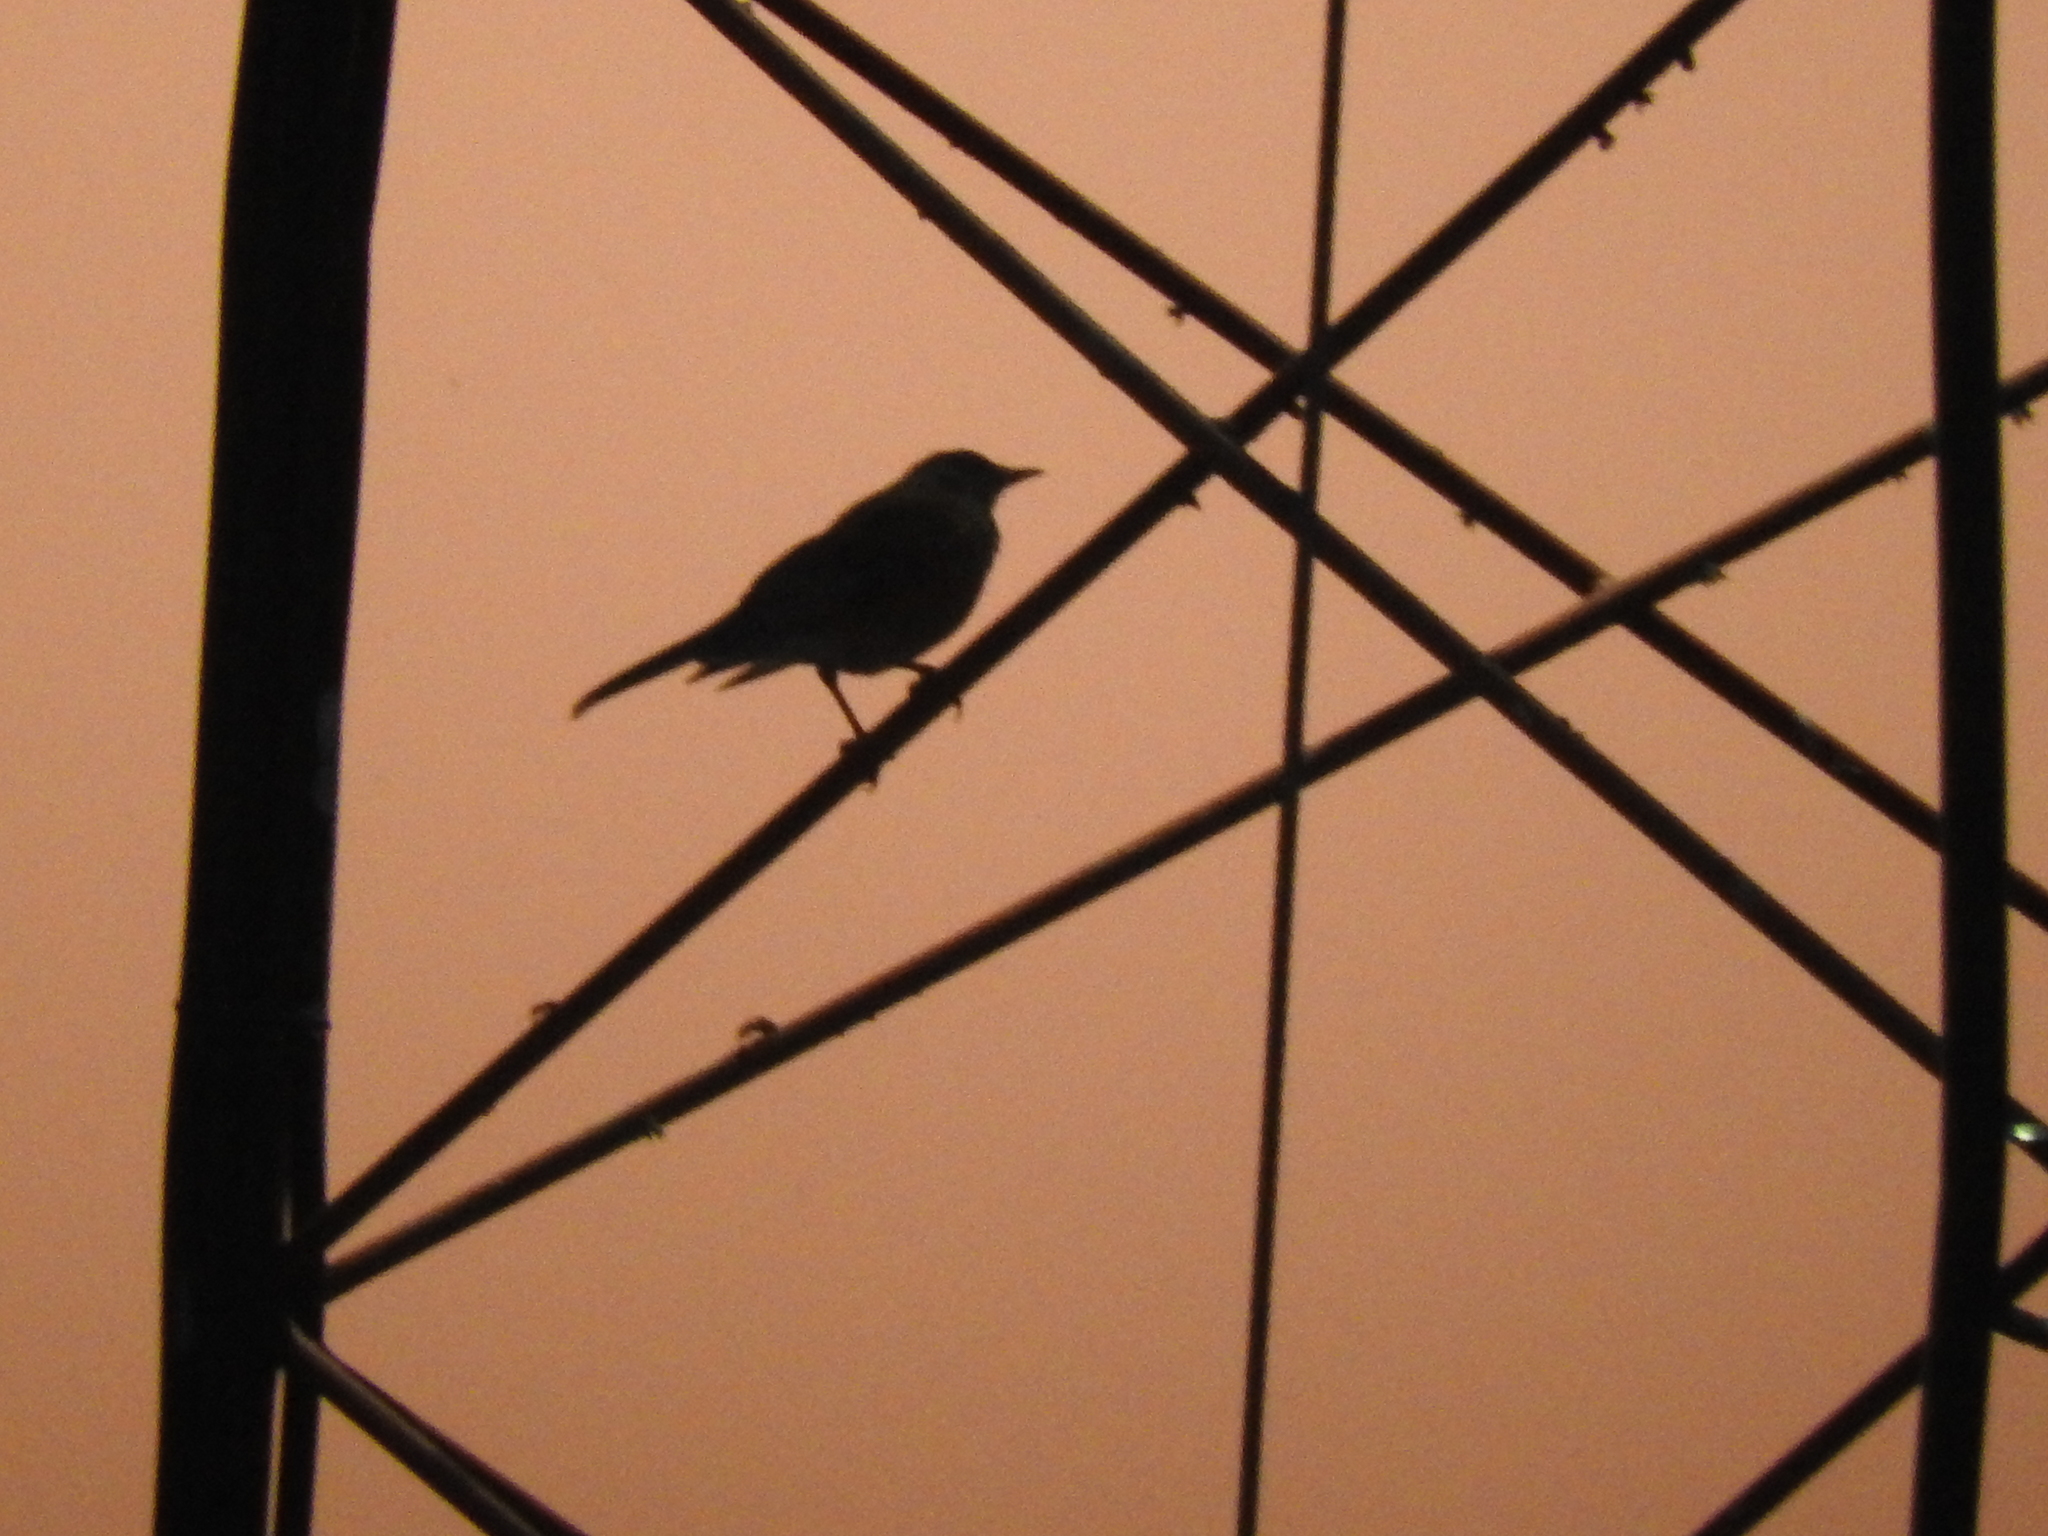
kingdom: Animalia
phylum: Chordata
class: Aves
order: Passeriformes
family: Turdidae
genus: Turdus
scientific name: Turdus rufopalliatus
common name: Rufous-backed robin
